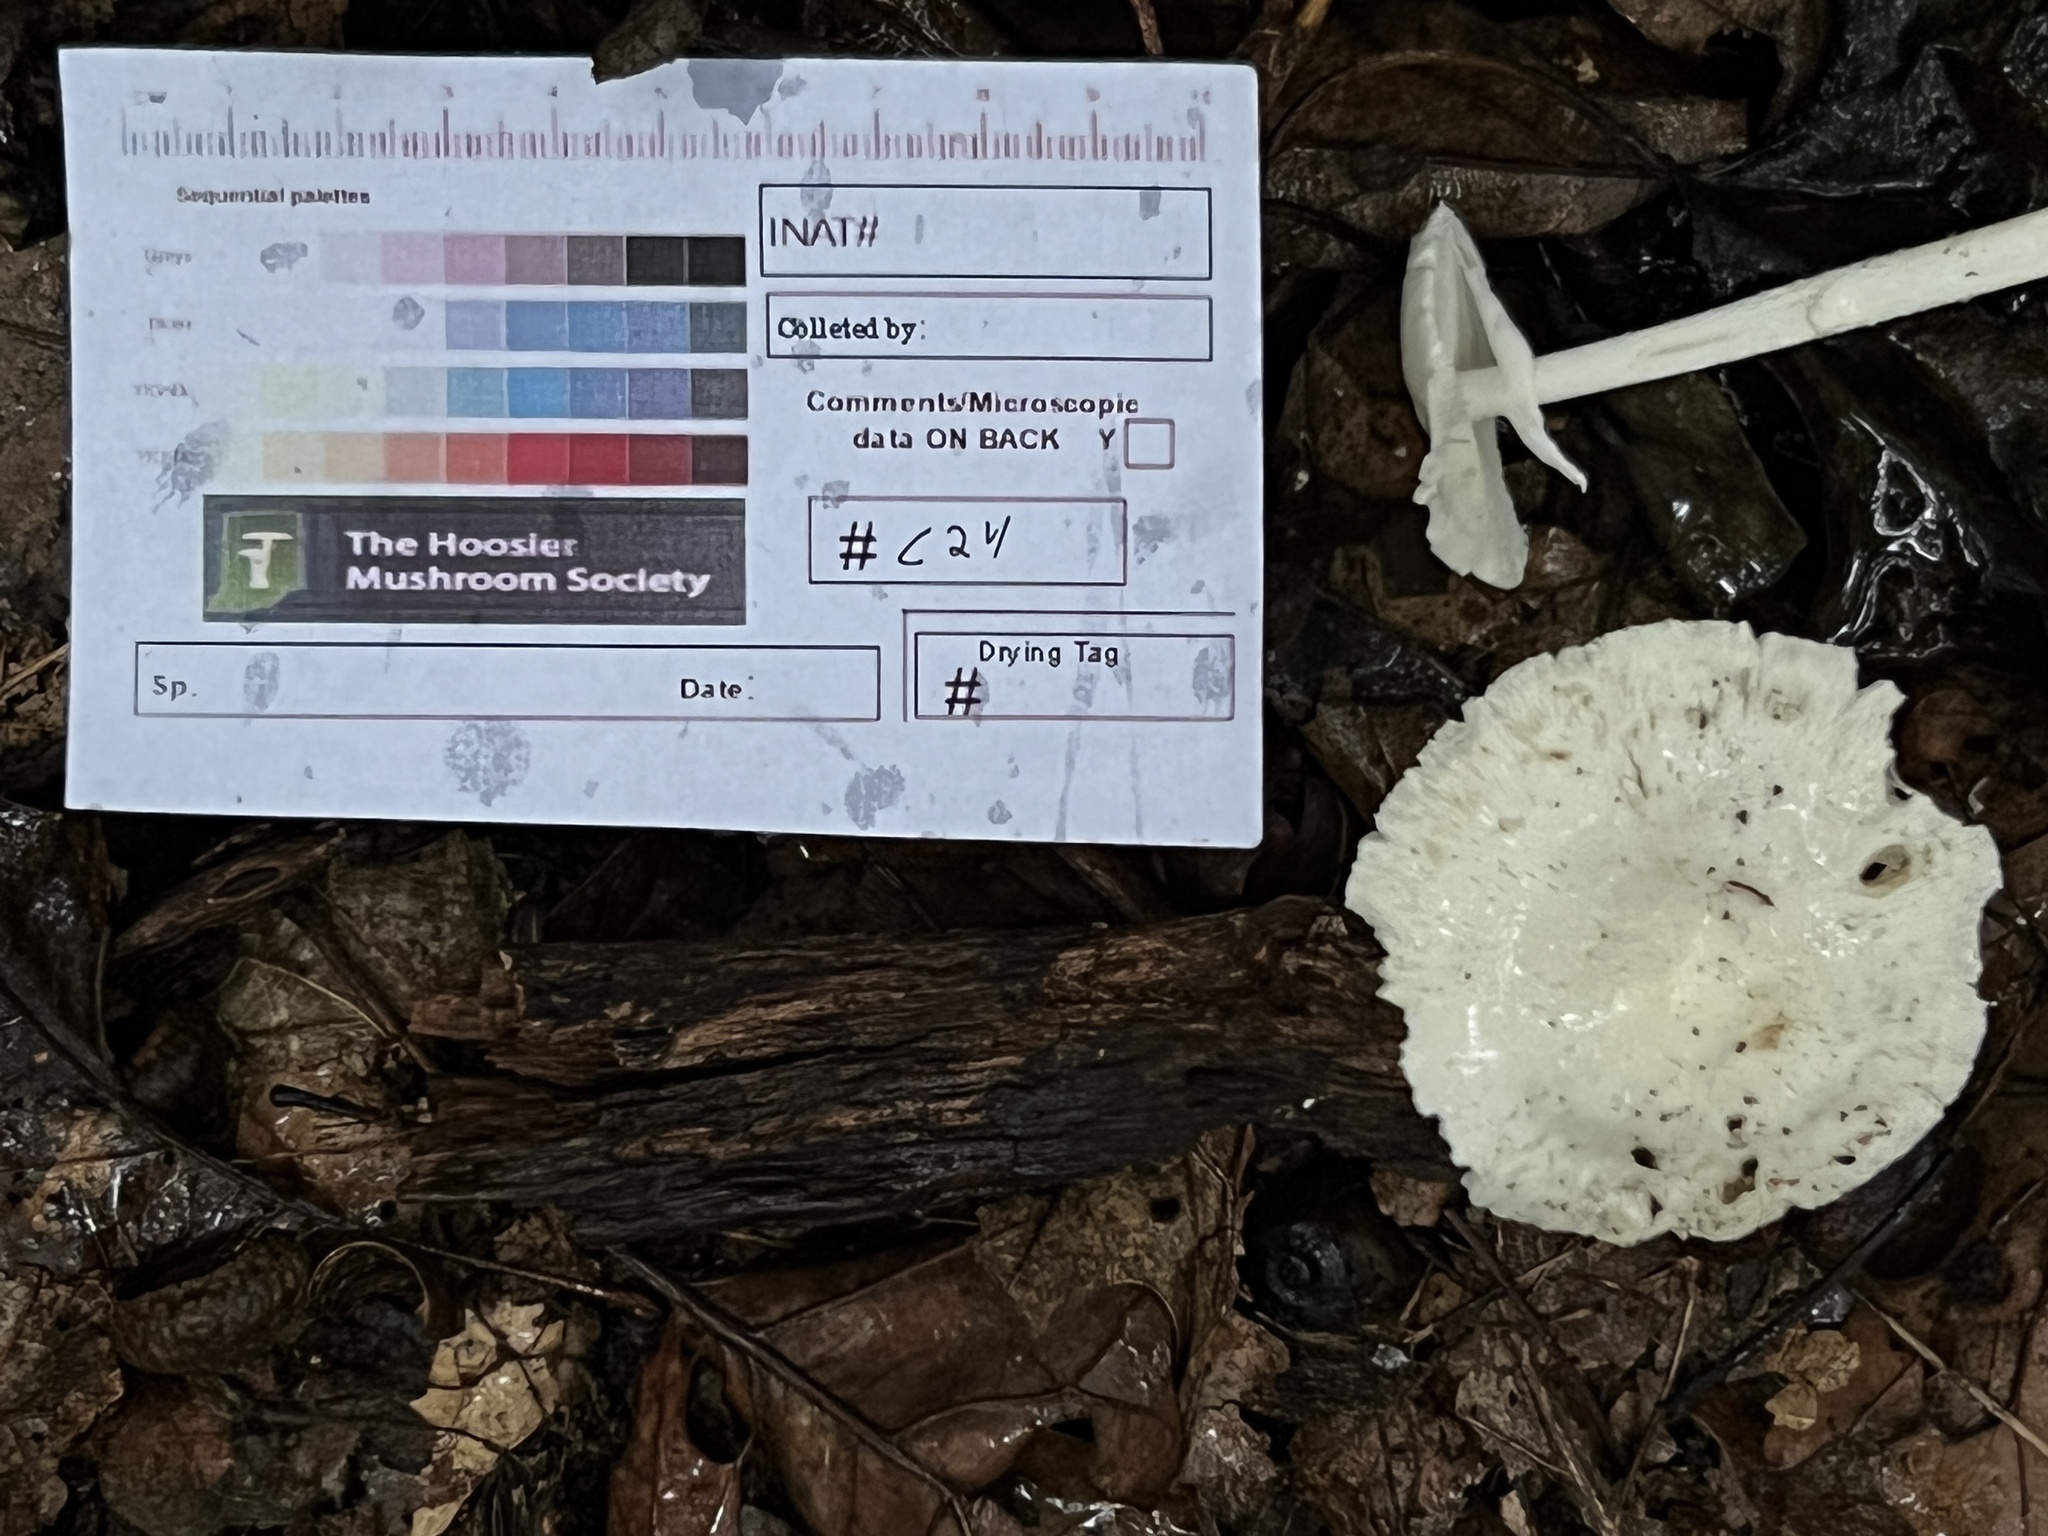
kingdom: Fungi
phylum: Basidiomycota
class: Agaricomycetes
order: Agaricales
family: Amanitaceae
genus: Amanita
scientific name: Amanita bisporigera
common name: Eastern north american destroying angel
